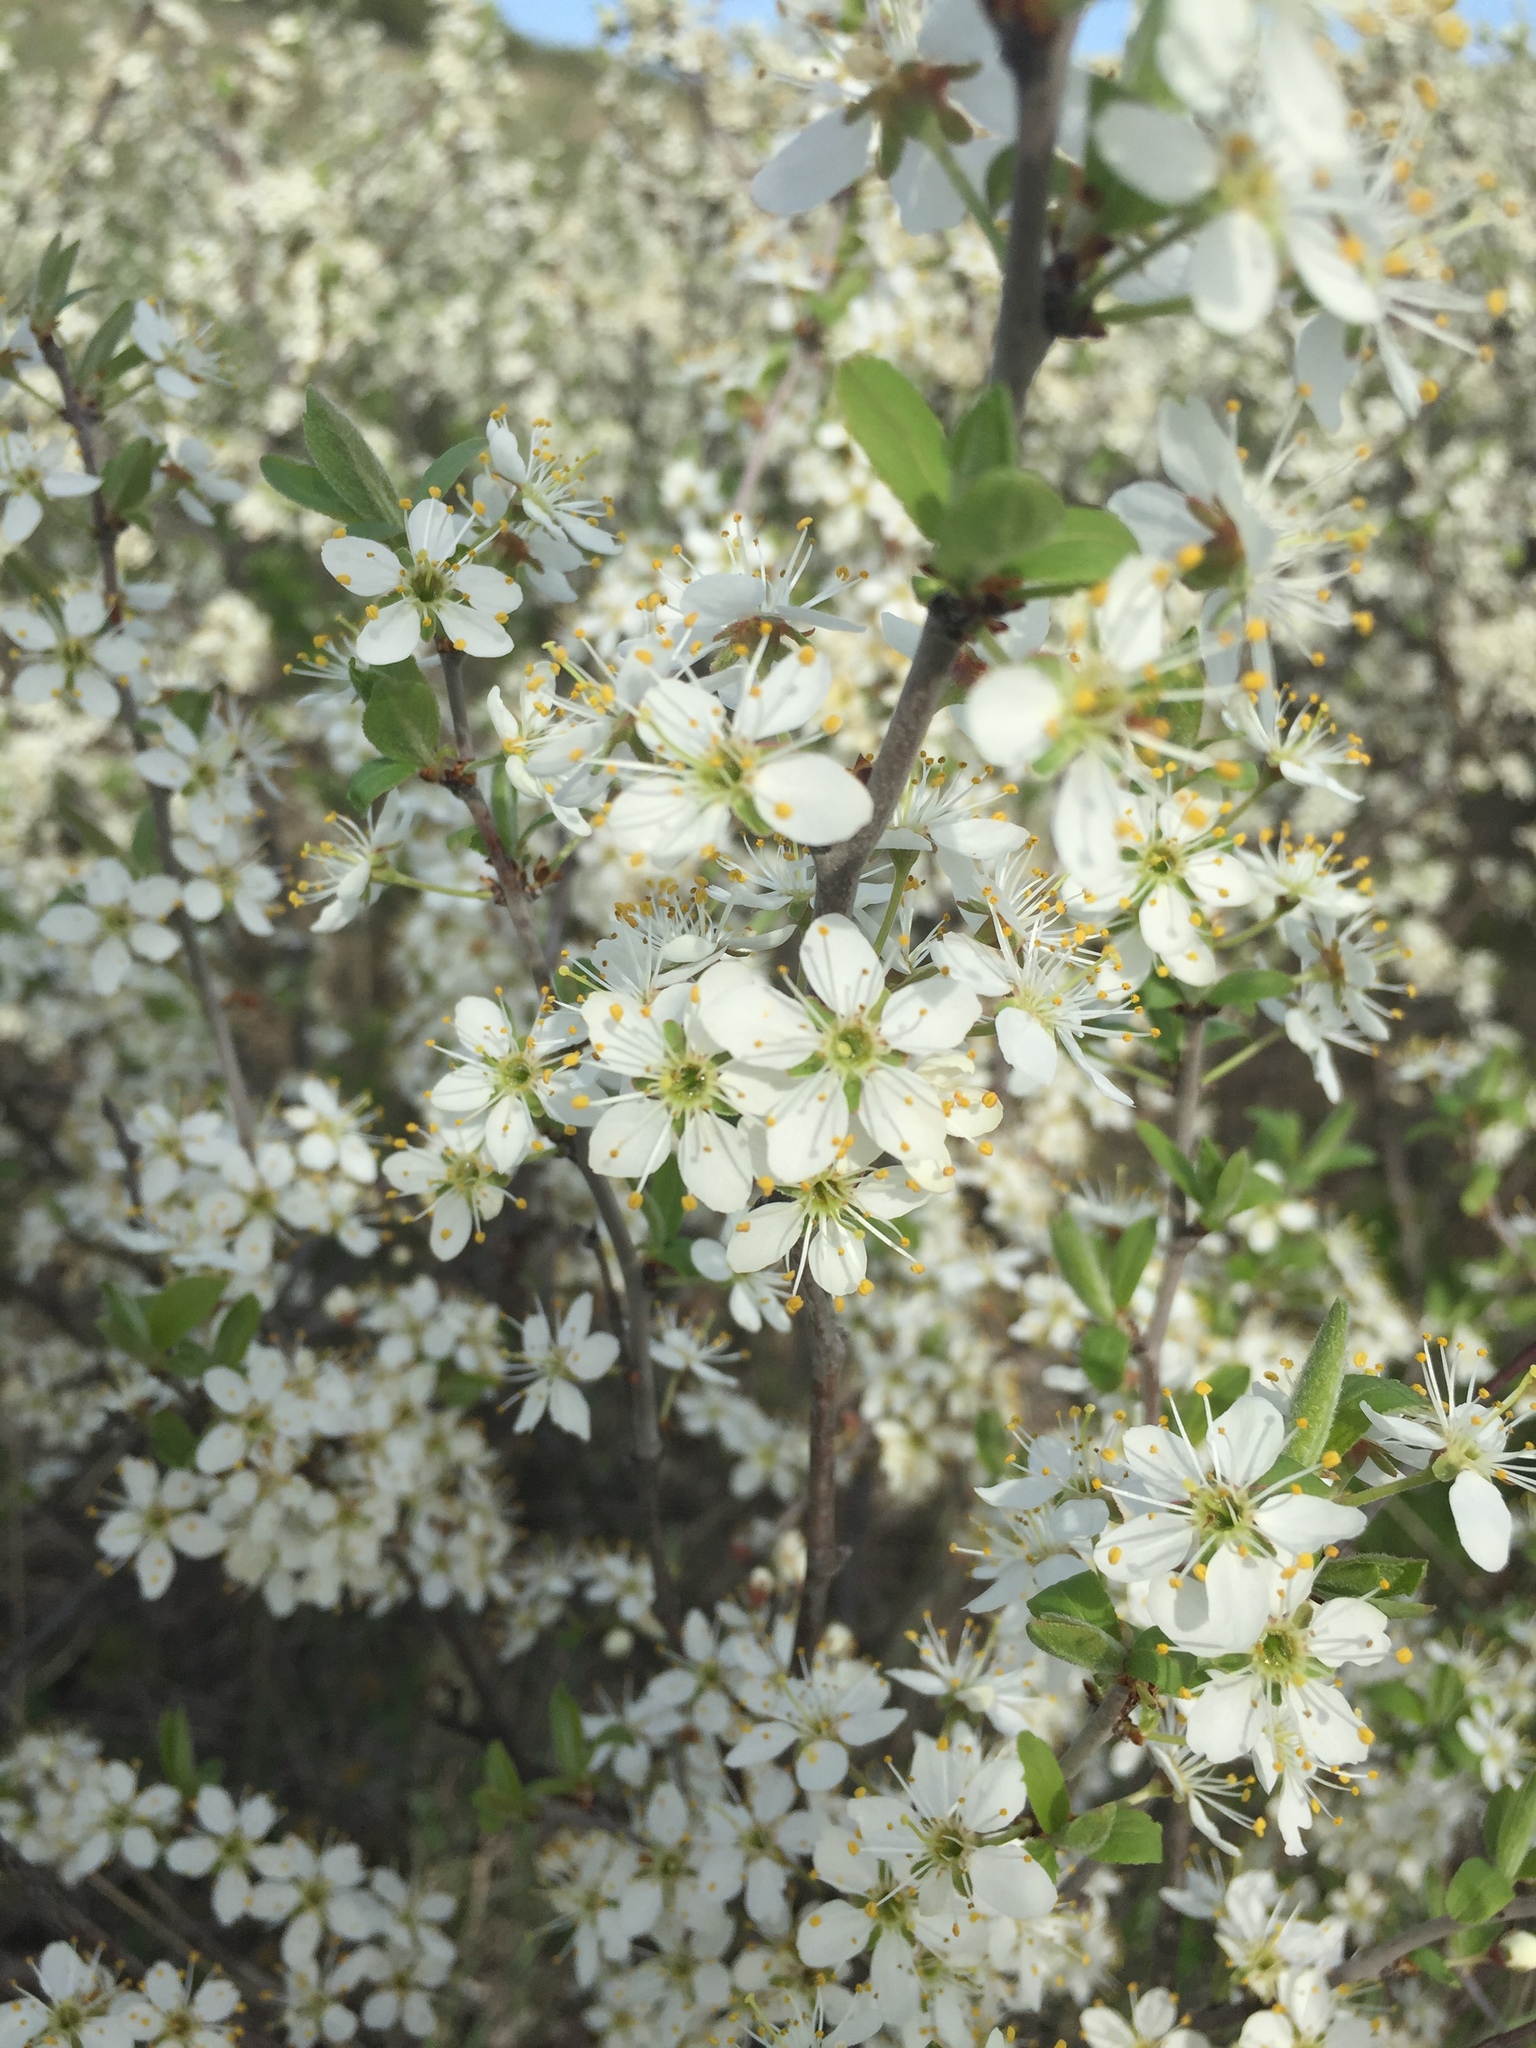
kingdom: Plantae
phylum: Tracheophyta
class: Magnoliopsida
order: Rosales
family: Rosaceae
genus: Prunus
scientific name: Prunus spinosa
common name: Blackthorn
